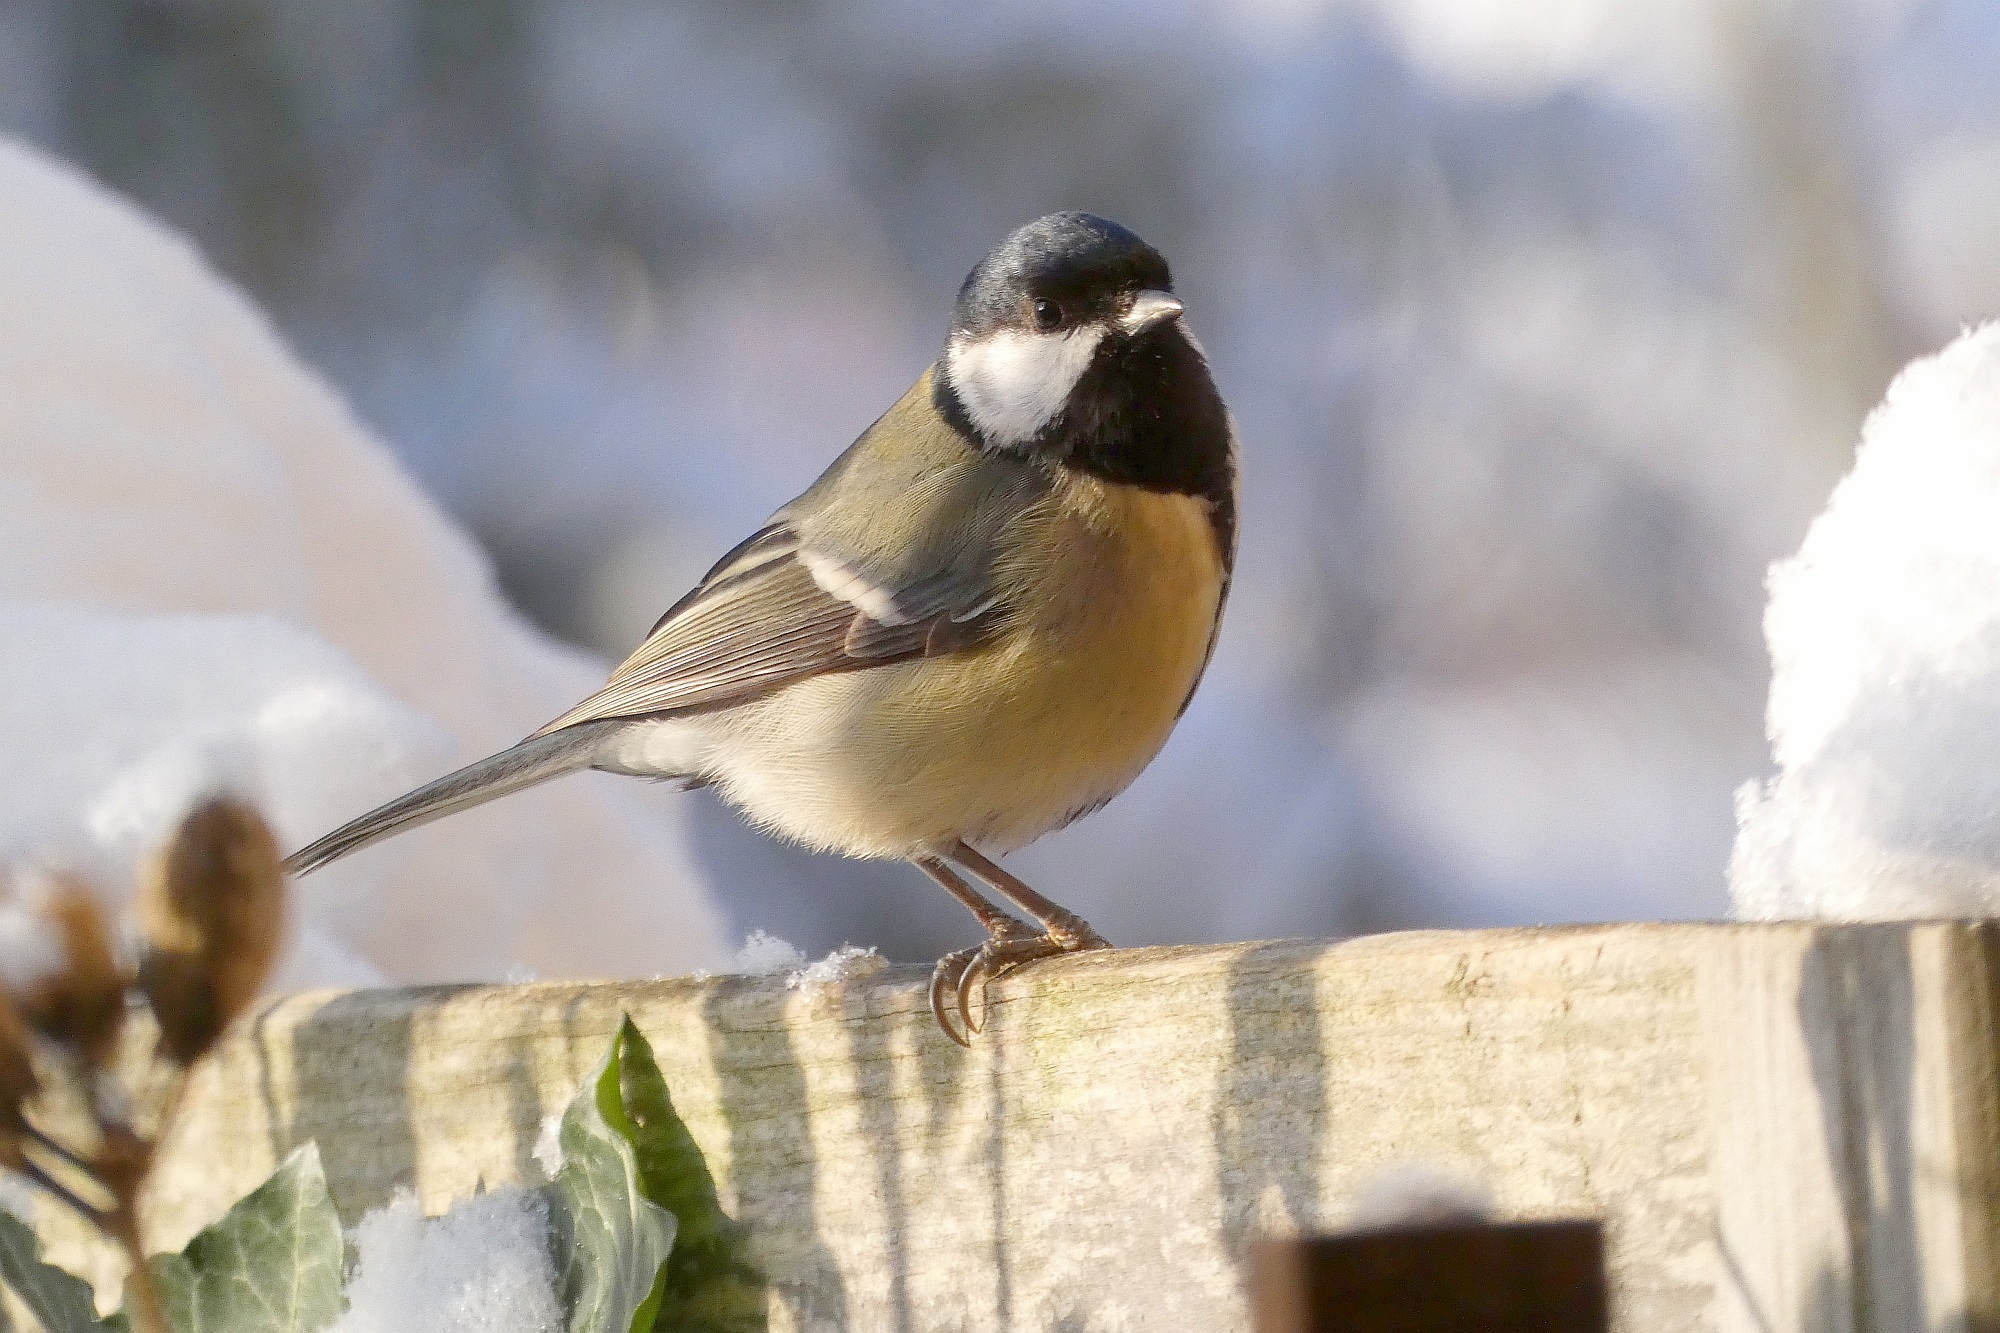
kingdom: Animalia
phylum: Chordata
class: Aves
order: Passeriformes
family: Paridae
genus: Parus
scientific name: Parus major
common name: Great tit
